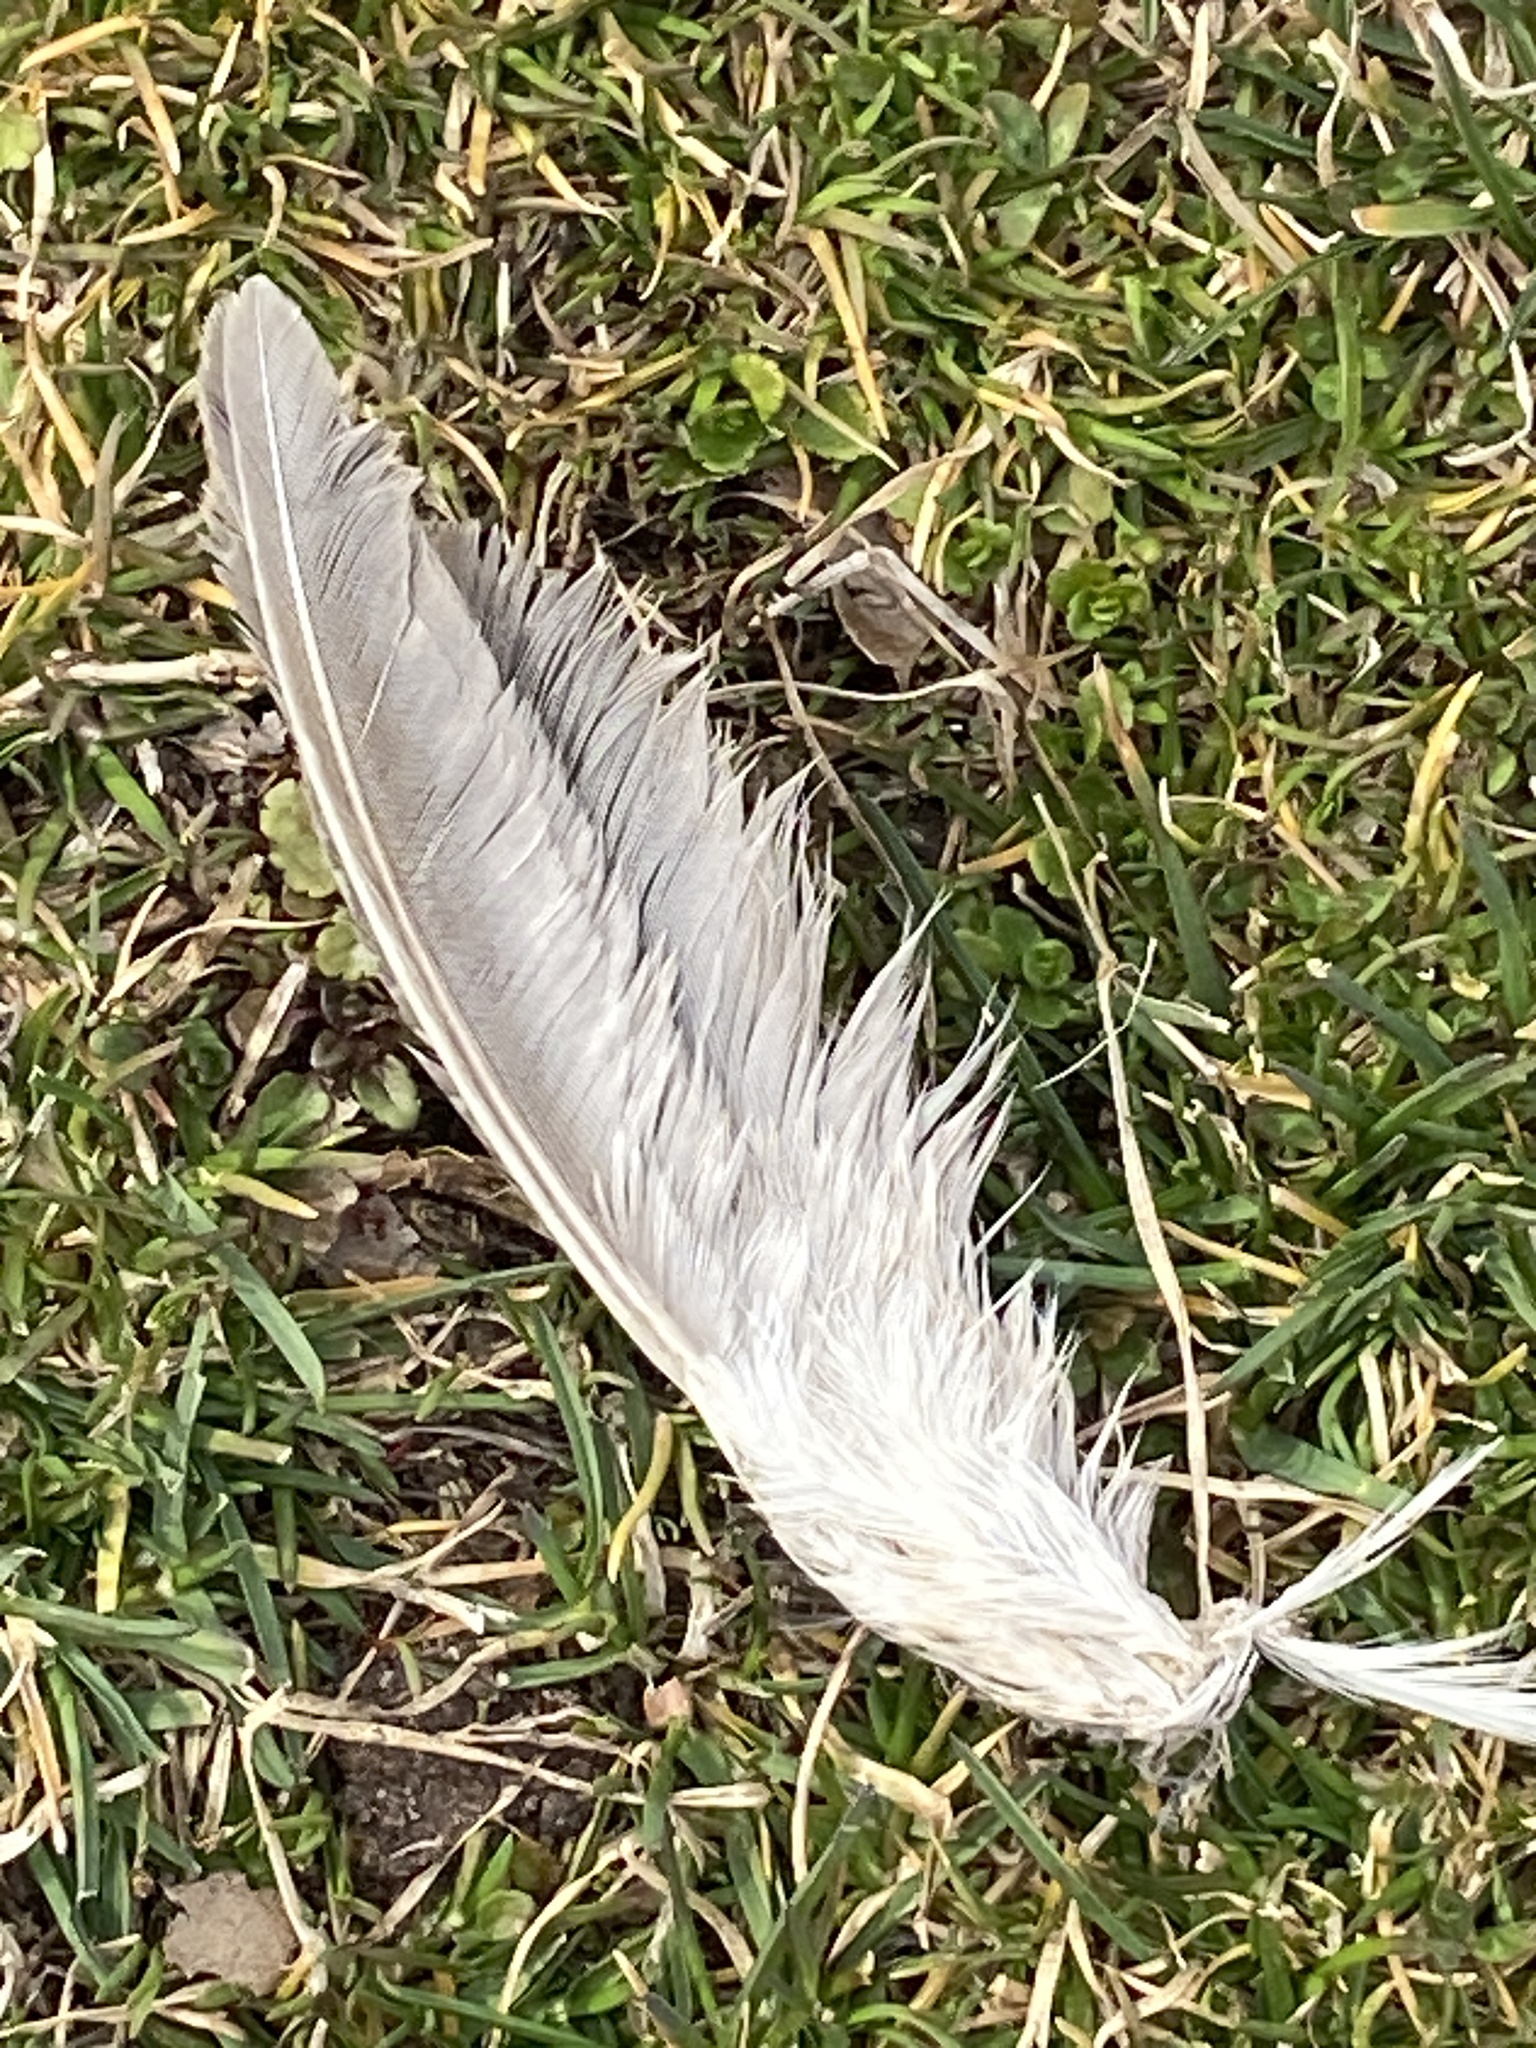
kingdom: Animalia
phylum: Chordata
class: Aves
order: Pelecaniformes
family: Ardeidae
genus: Nycticorax
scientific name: Nycticorax nycticorax
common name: Black-crowned night heron
